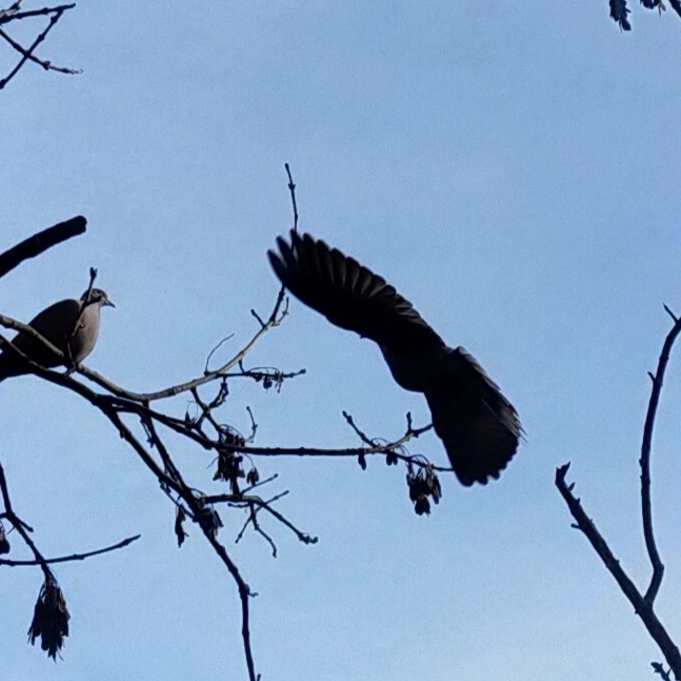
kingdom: Animalia
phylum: Chordata
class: Aves
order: Columbiformes
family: Columbidae
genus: Streptopelia
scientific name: Streptopelia decaocto
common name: Eurasian collared dove
